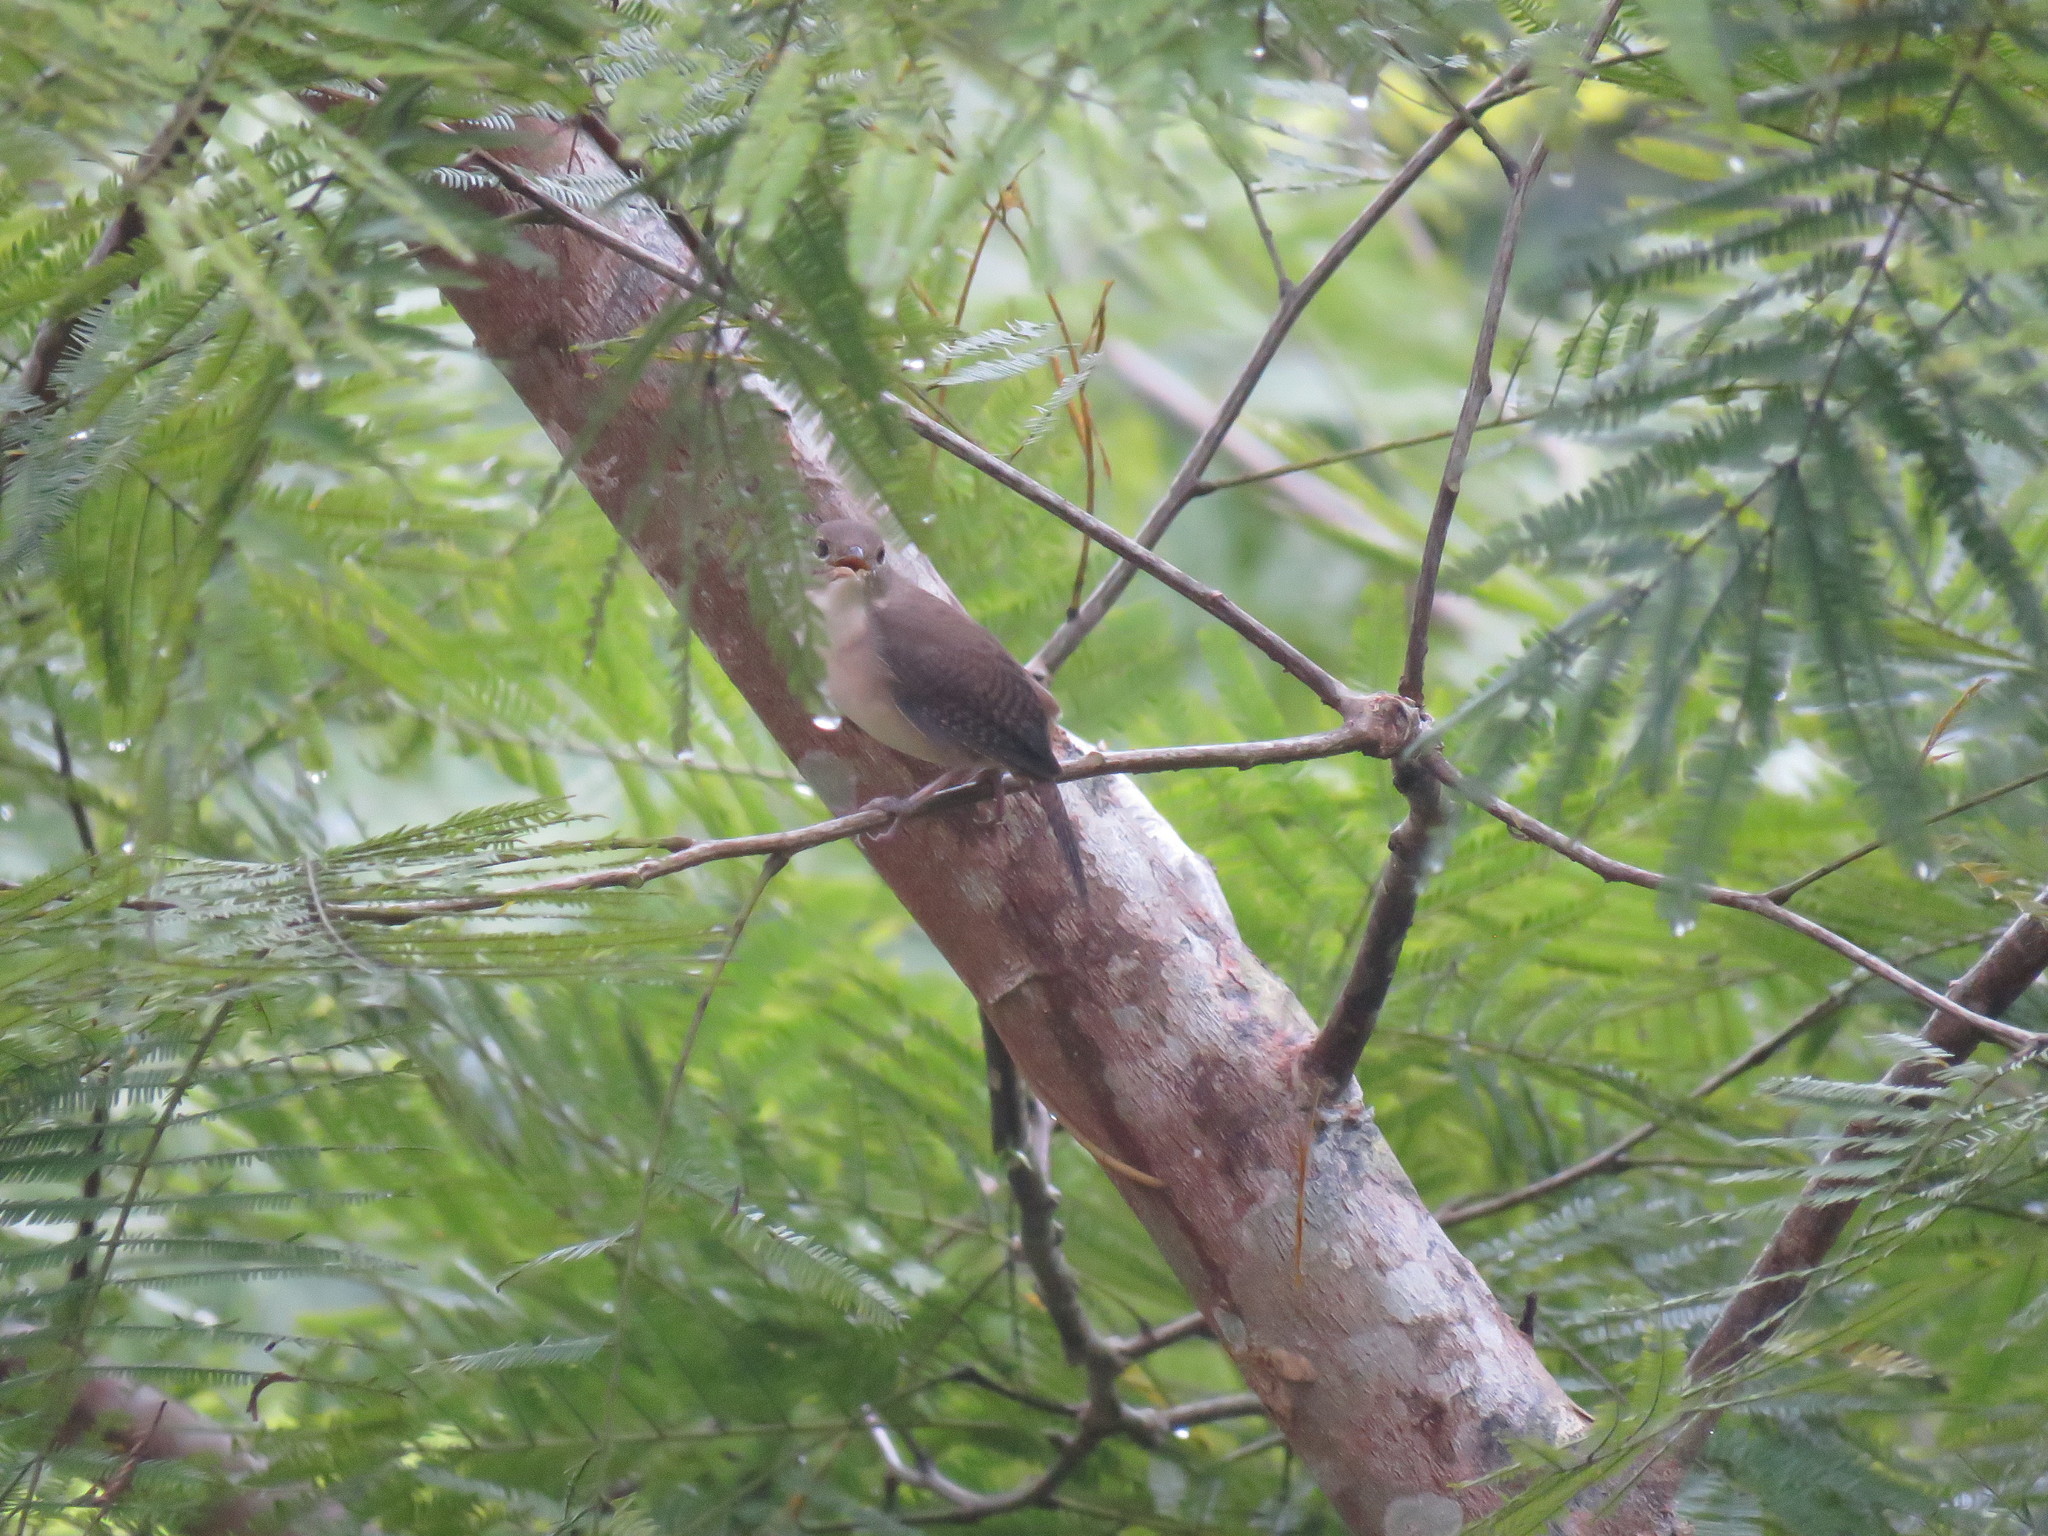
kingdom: Animalia
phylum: Chordata
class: Aves
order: Passeriformes
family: Troglodytidae
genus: Troglodytes
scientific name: Troglodytes aedon
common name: House wren
